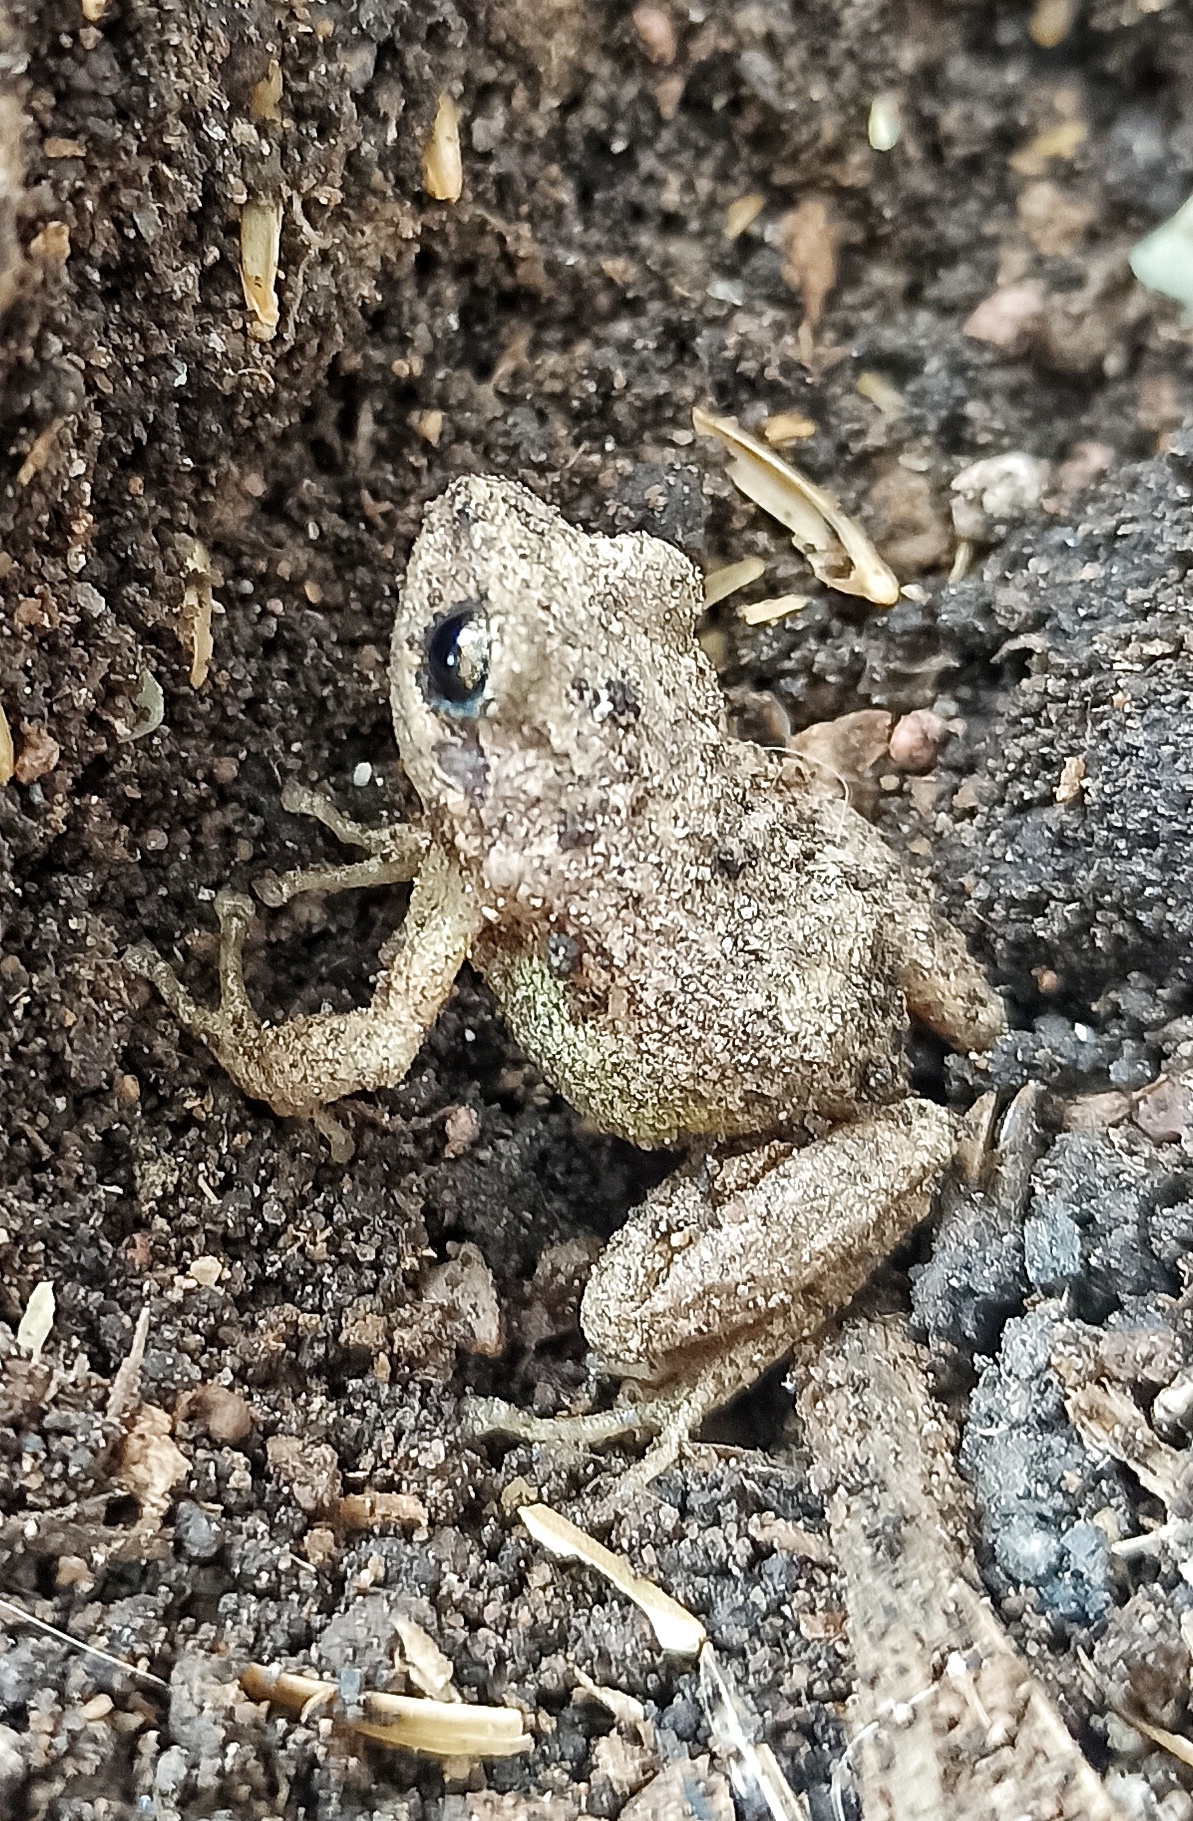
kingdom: Animalia
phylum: Chordata
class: Amphibia
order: Anura
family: Craugastoridae
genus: Pristimantis
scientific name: Pristimantis unistrigatus
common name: Striped robber frog
